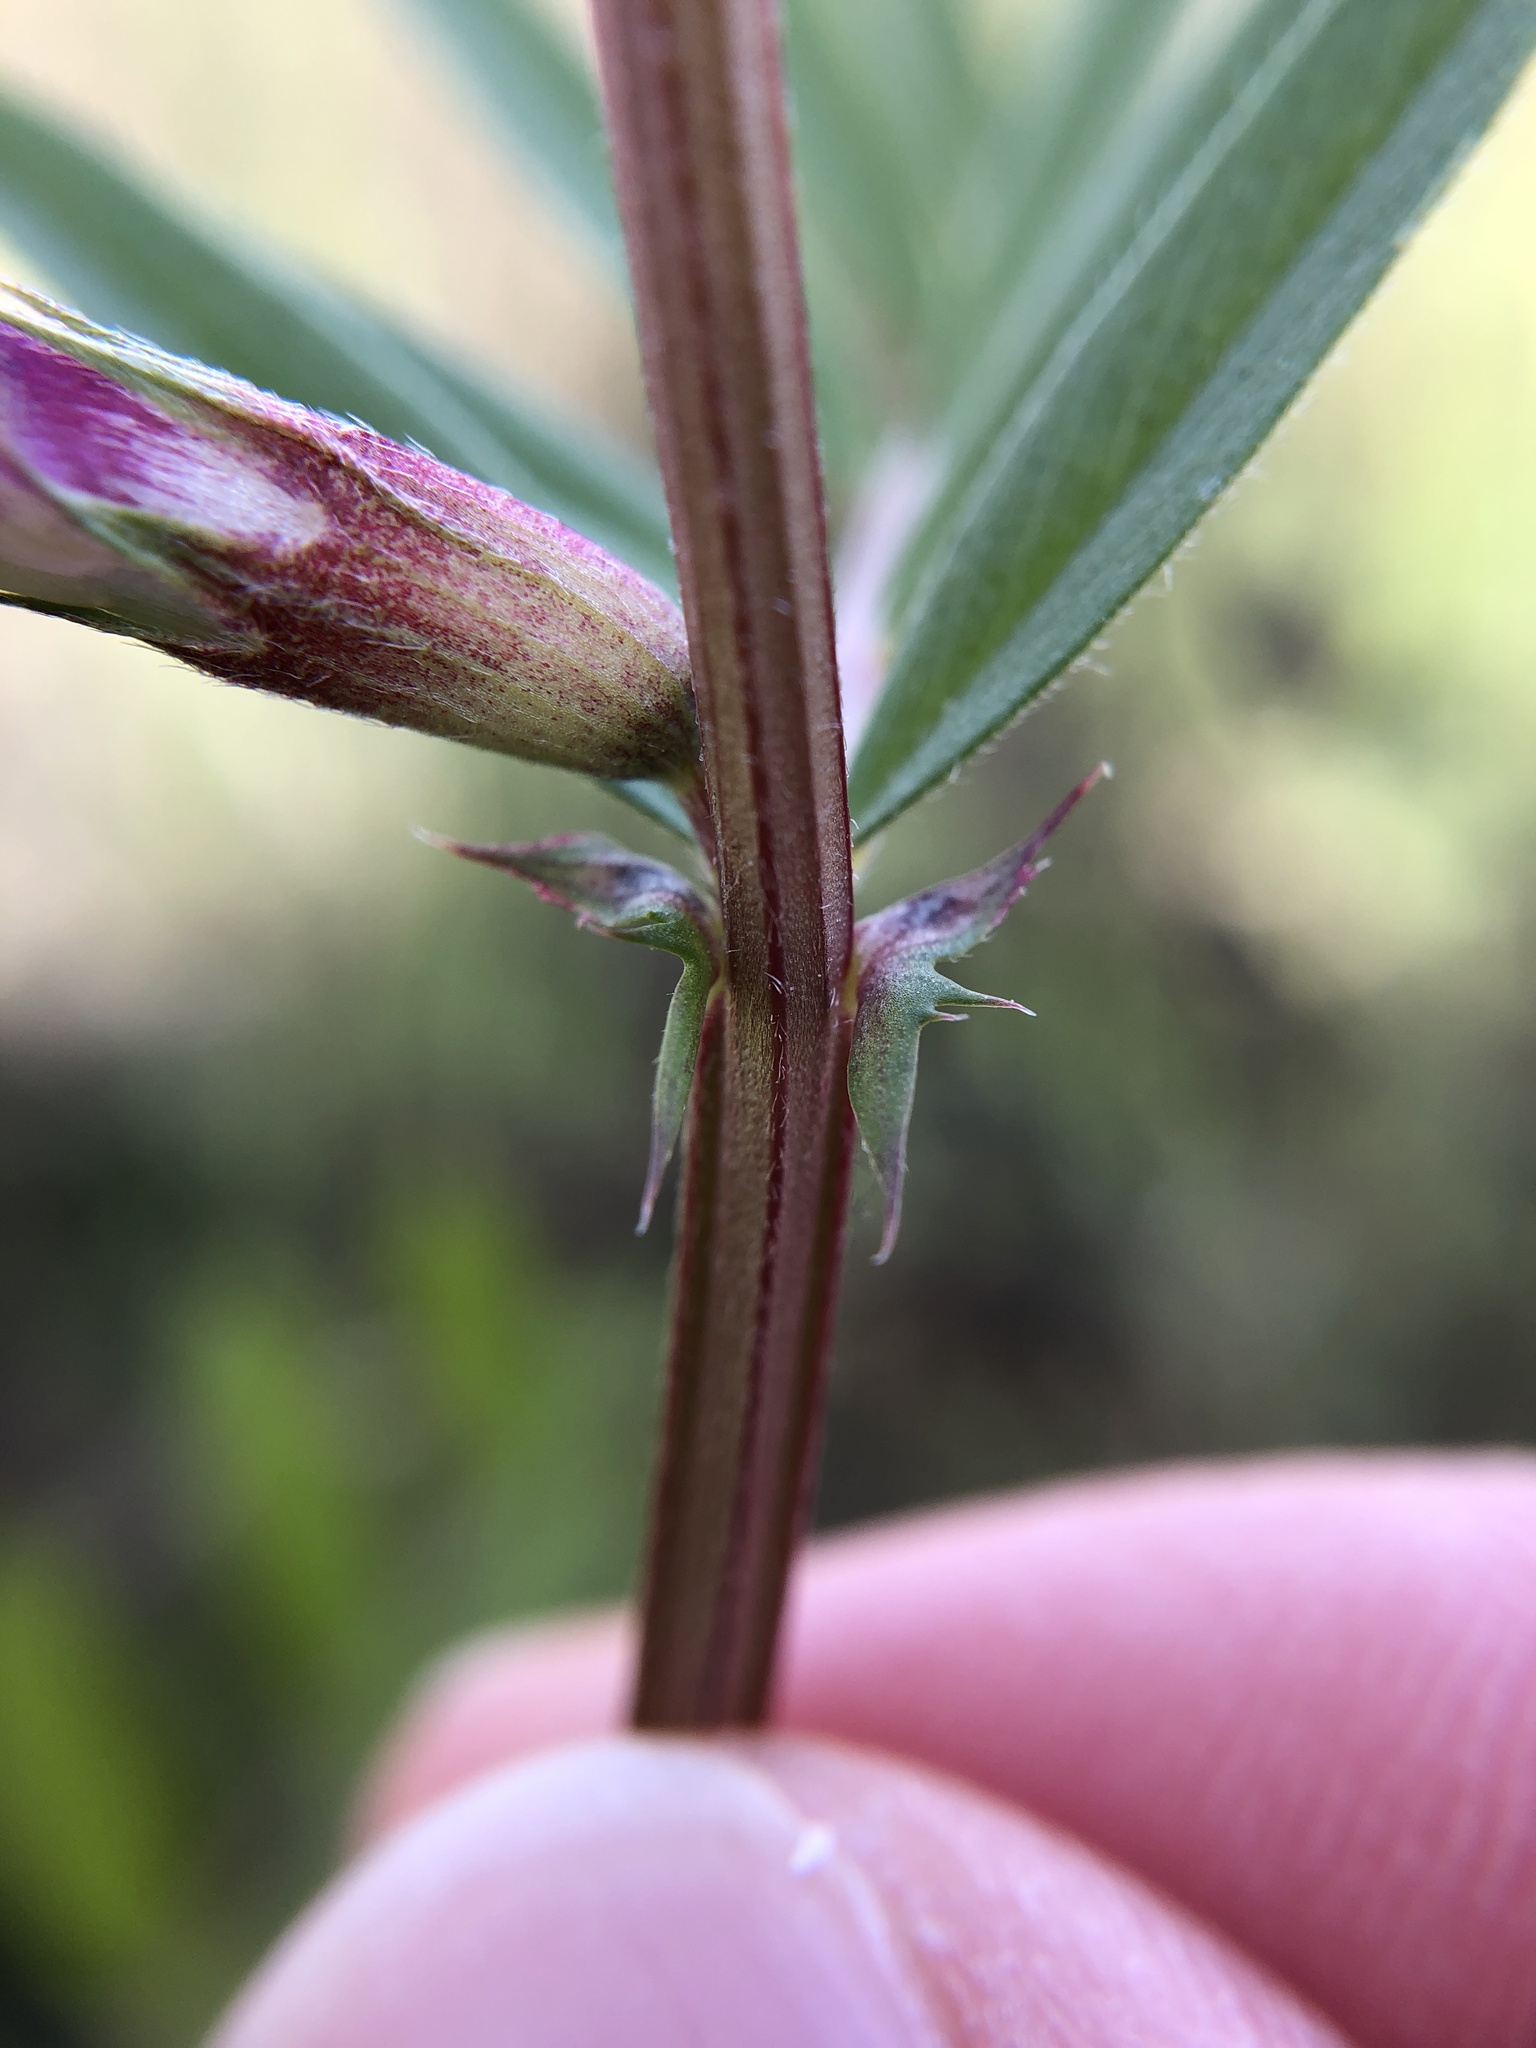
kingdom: Plantae
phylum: Tracheophyta
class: Magnoliopsida
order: Fabales
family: Fabaceae
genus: Vicia
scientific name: Vicia sativa
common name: Garden vetch
